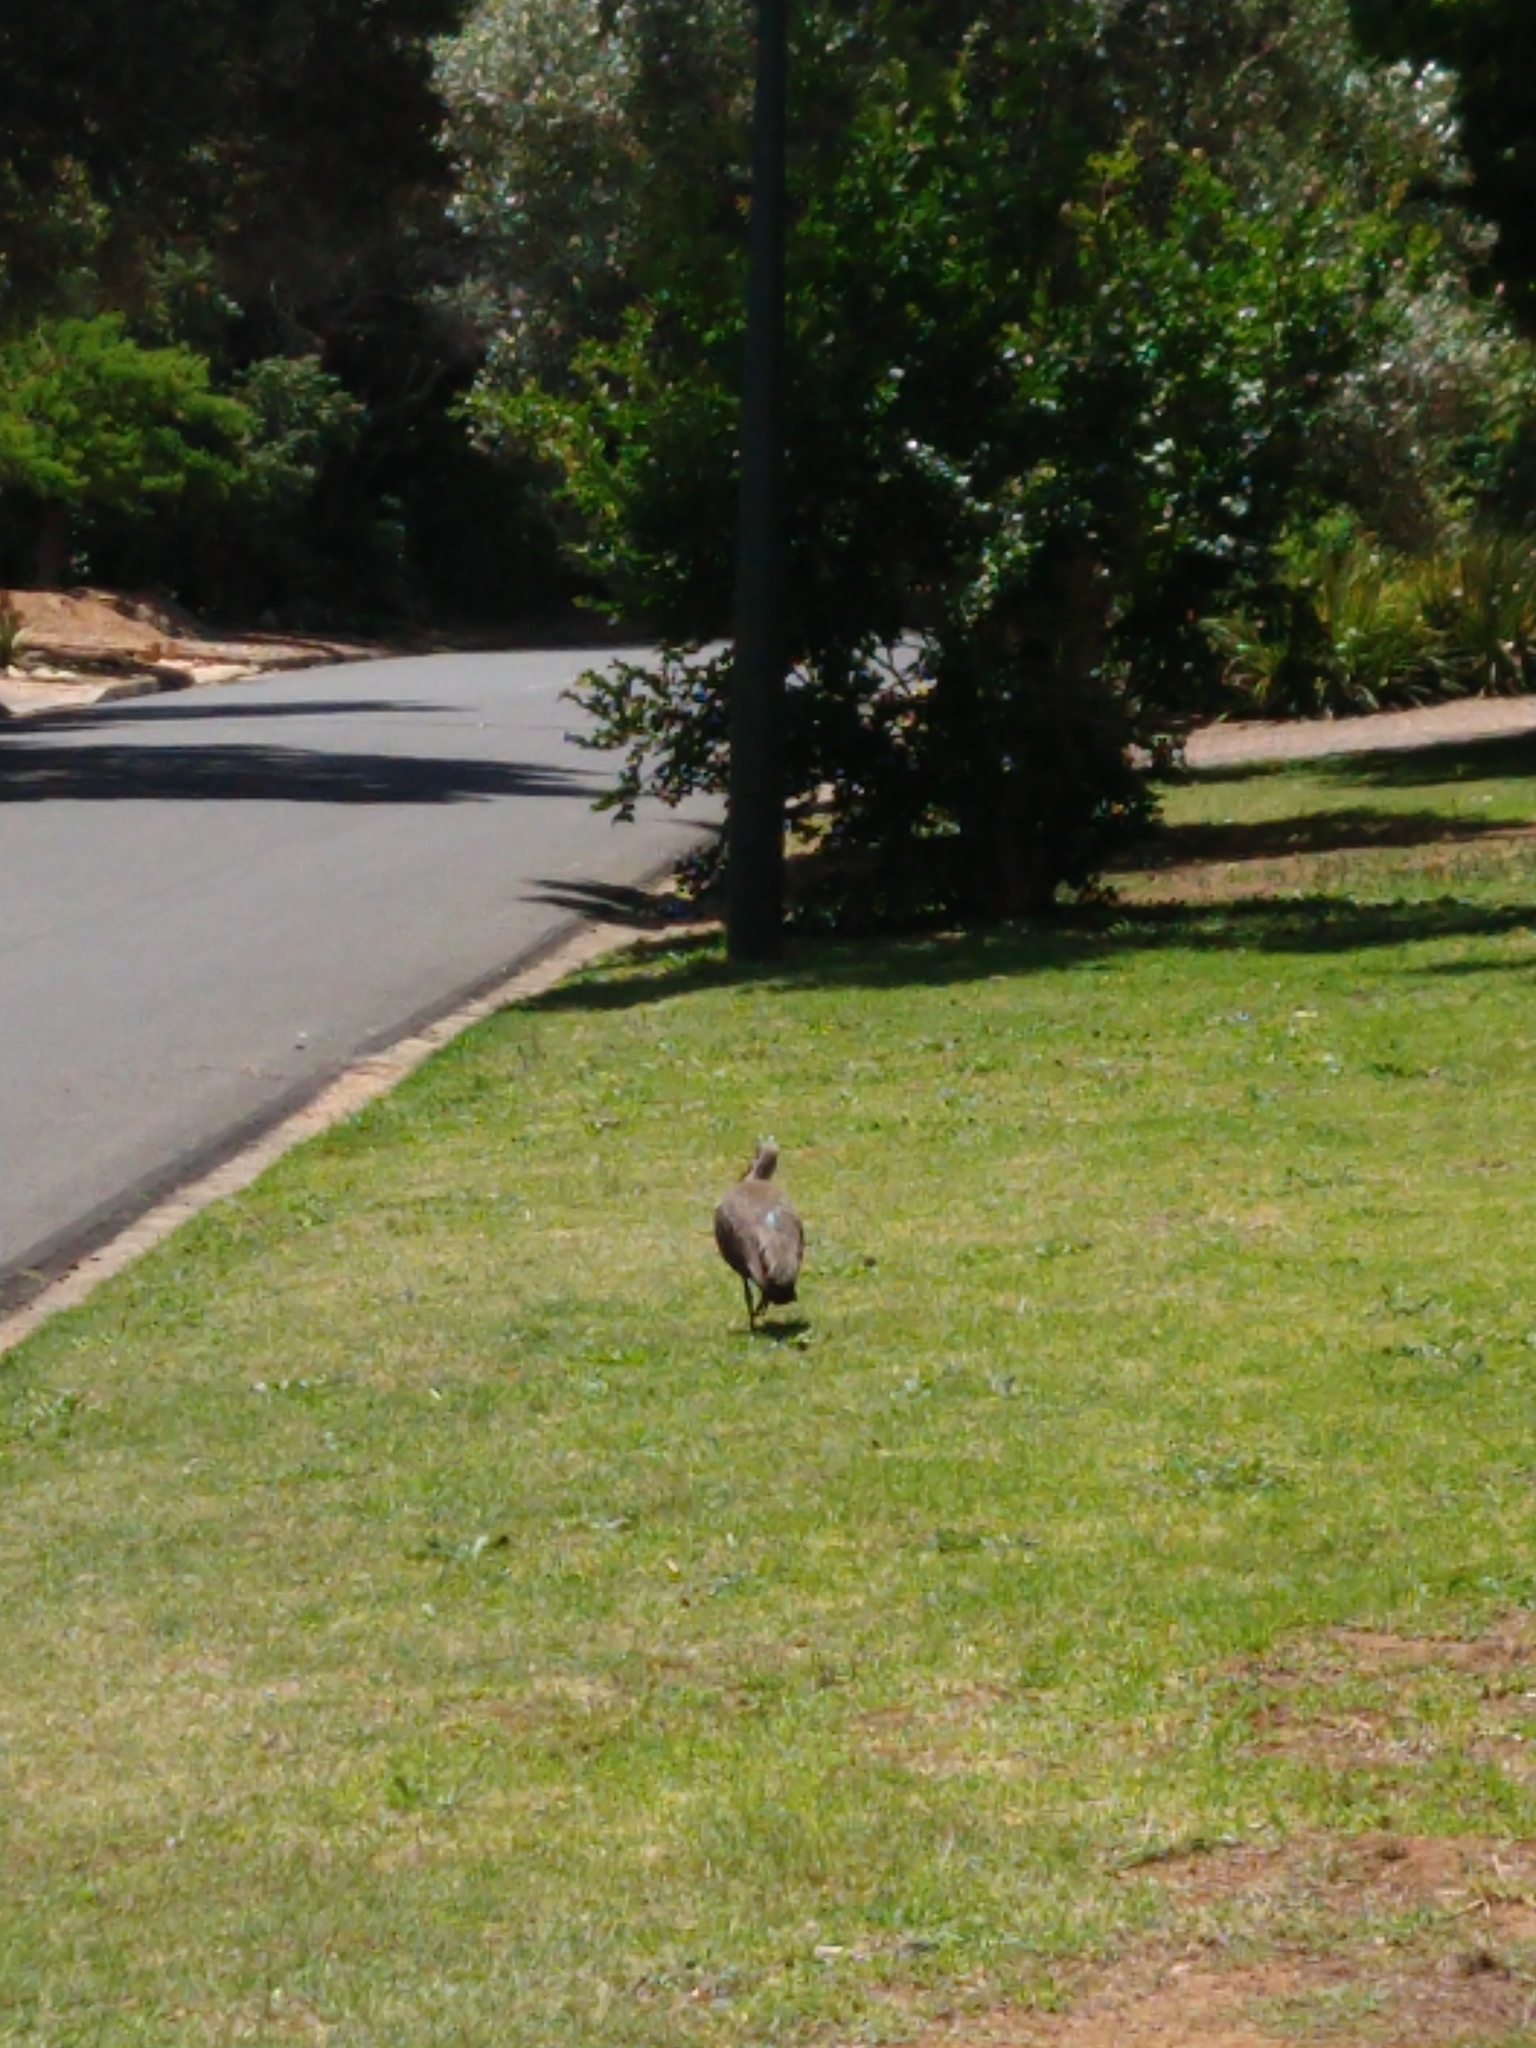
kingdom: Animalia
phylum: Chordata
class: Aves
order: Pelecaniformes
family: Threskiornithidae
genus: Bostrychia
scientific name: Bostrychia hagedash
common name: Hadada ibis
